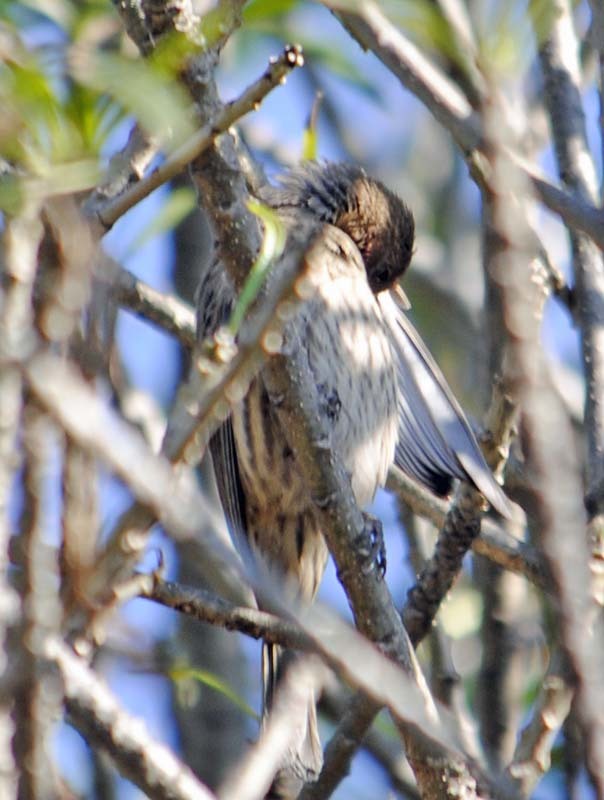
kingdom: Animalia
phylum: Chordata
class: Aves
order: Passeriformes
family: Fringillidae
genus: Haemorhous
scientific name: Haemorhous mexicanus
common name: House finch
